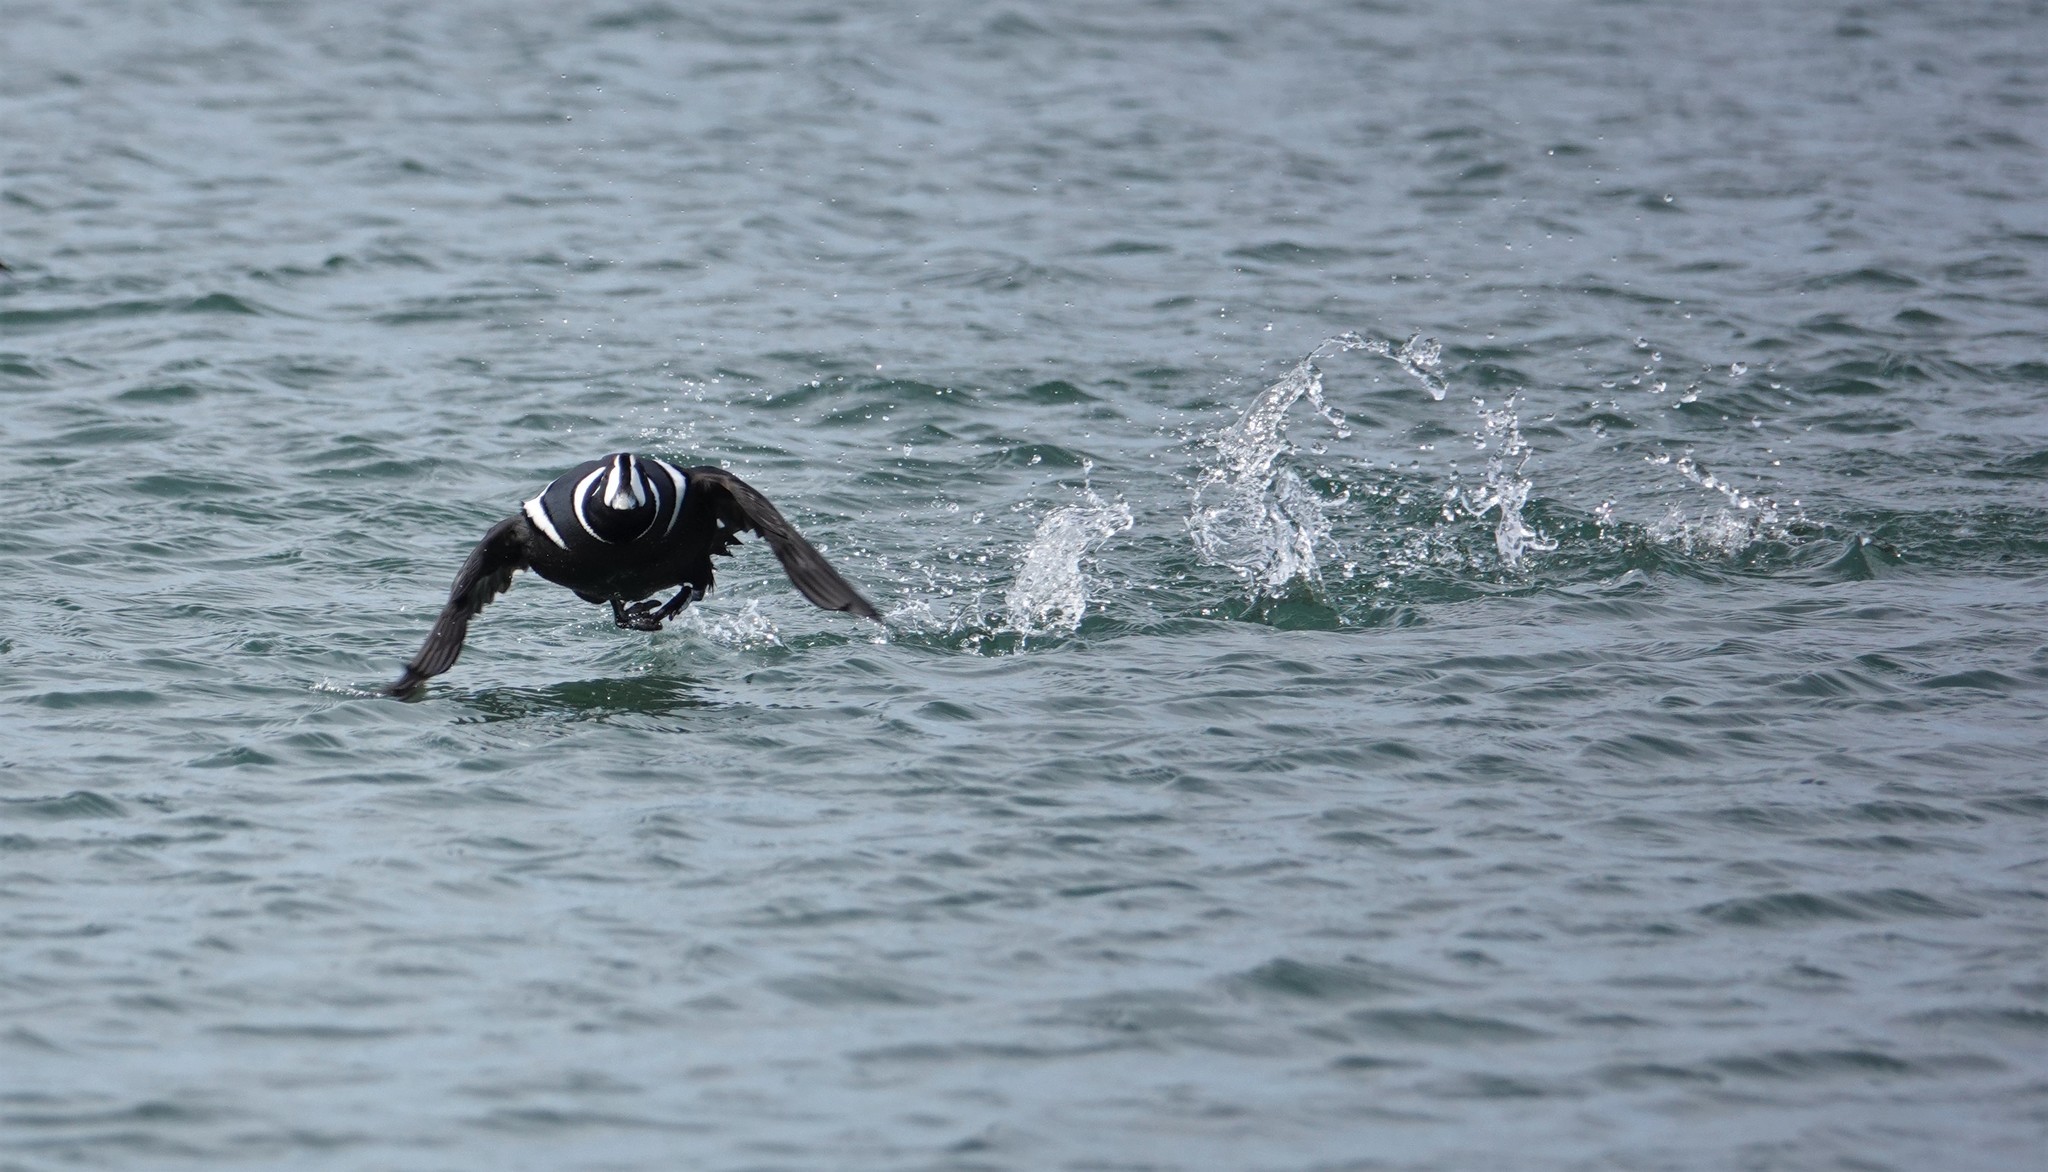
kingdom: Animalia
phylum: Chordata
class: Aves
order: Anseriformes
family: Anatidae
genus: Histrionicus
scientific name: Histrionicus histrionicus
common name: Harlequin duck
